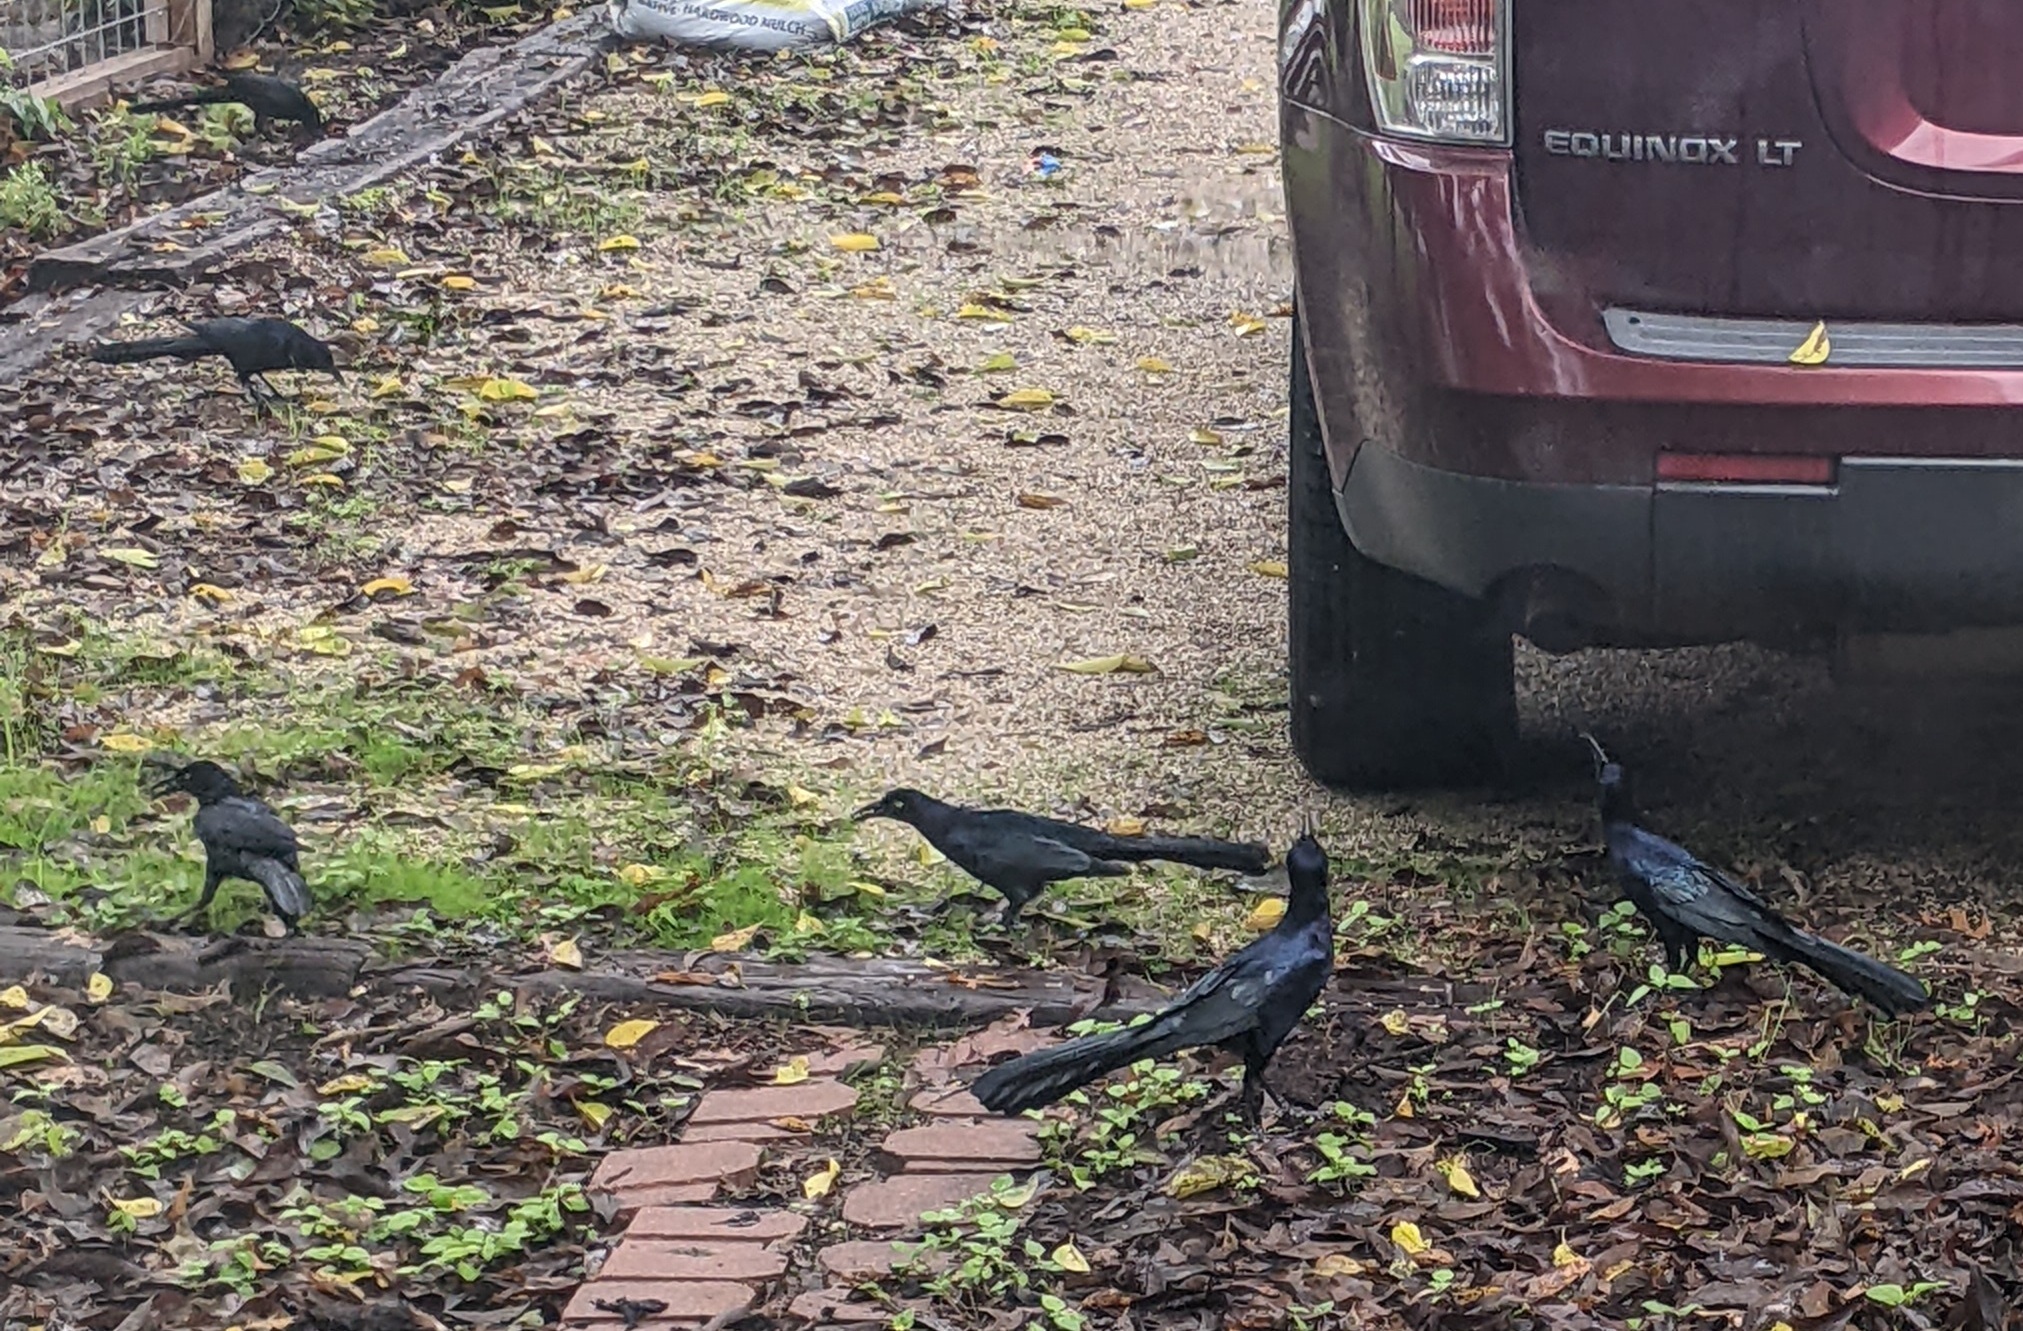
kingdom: Animalia
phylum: Chordata
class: Aves
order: Passeriformes
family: Icteridae
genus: Quiscalus
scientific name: Quiscalus mexicanus
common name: Great-tailed grackle
